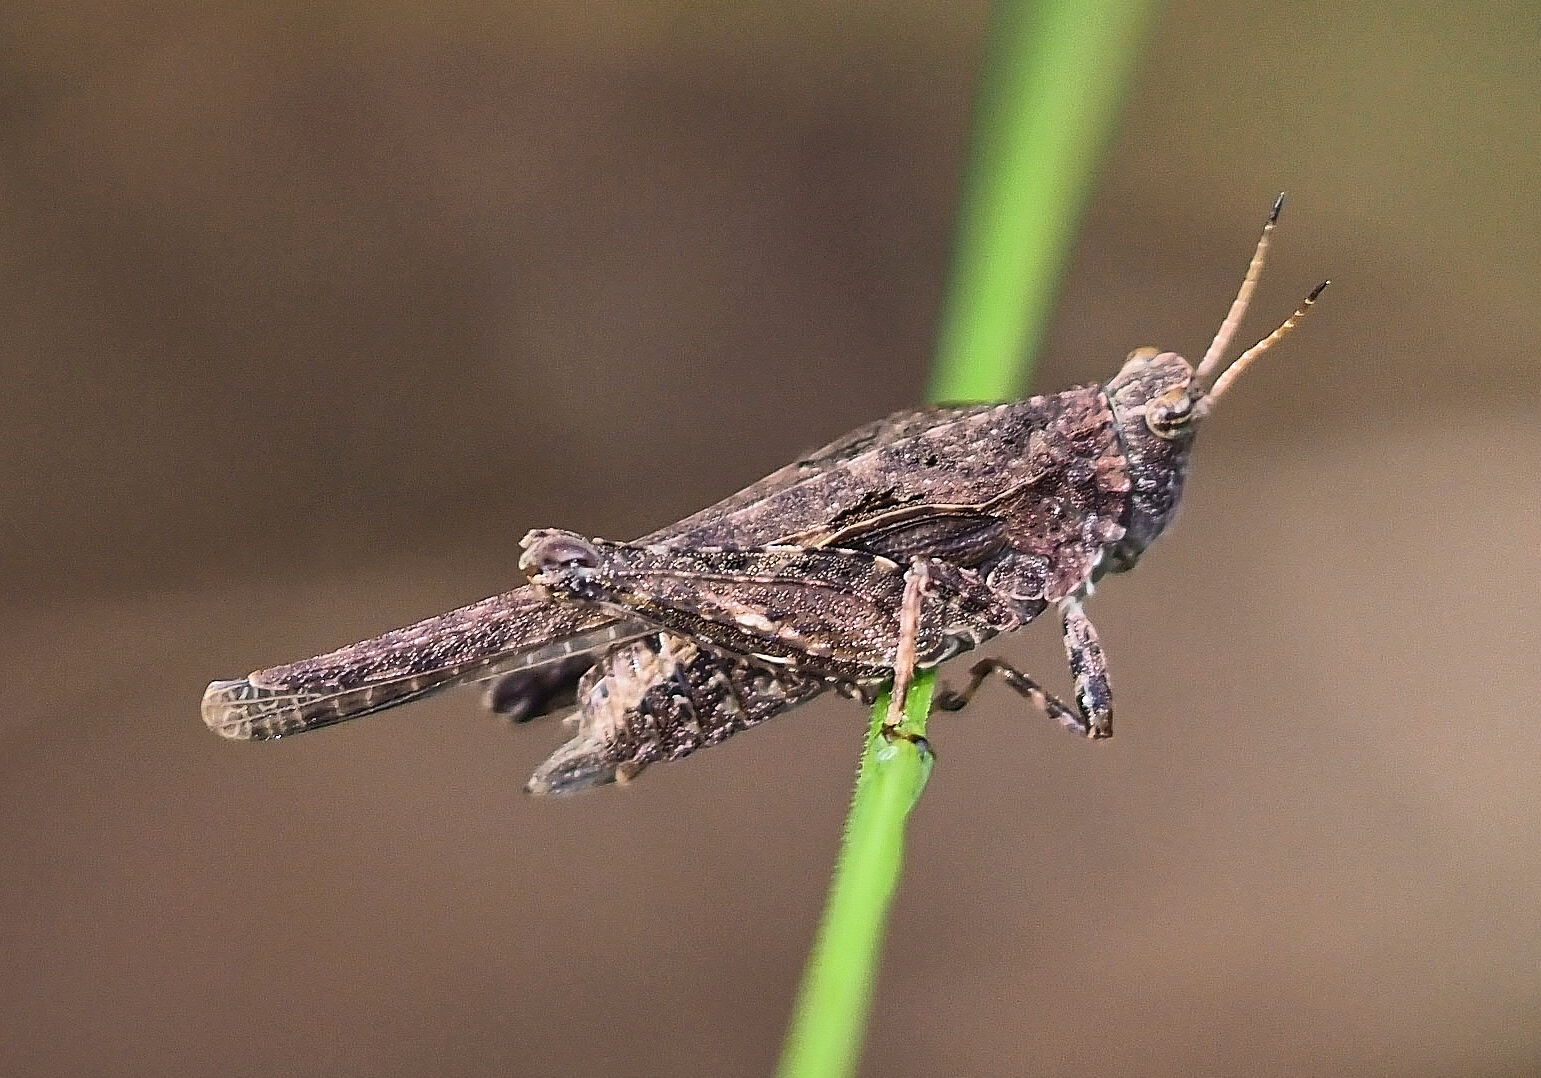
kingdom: Animalia
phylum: Arthropoda
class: Insecta
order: Orthoptera
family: Tetrigidae
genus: Tetrix
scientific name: Tetrix subulata
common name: Slender ground-hopper
